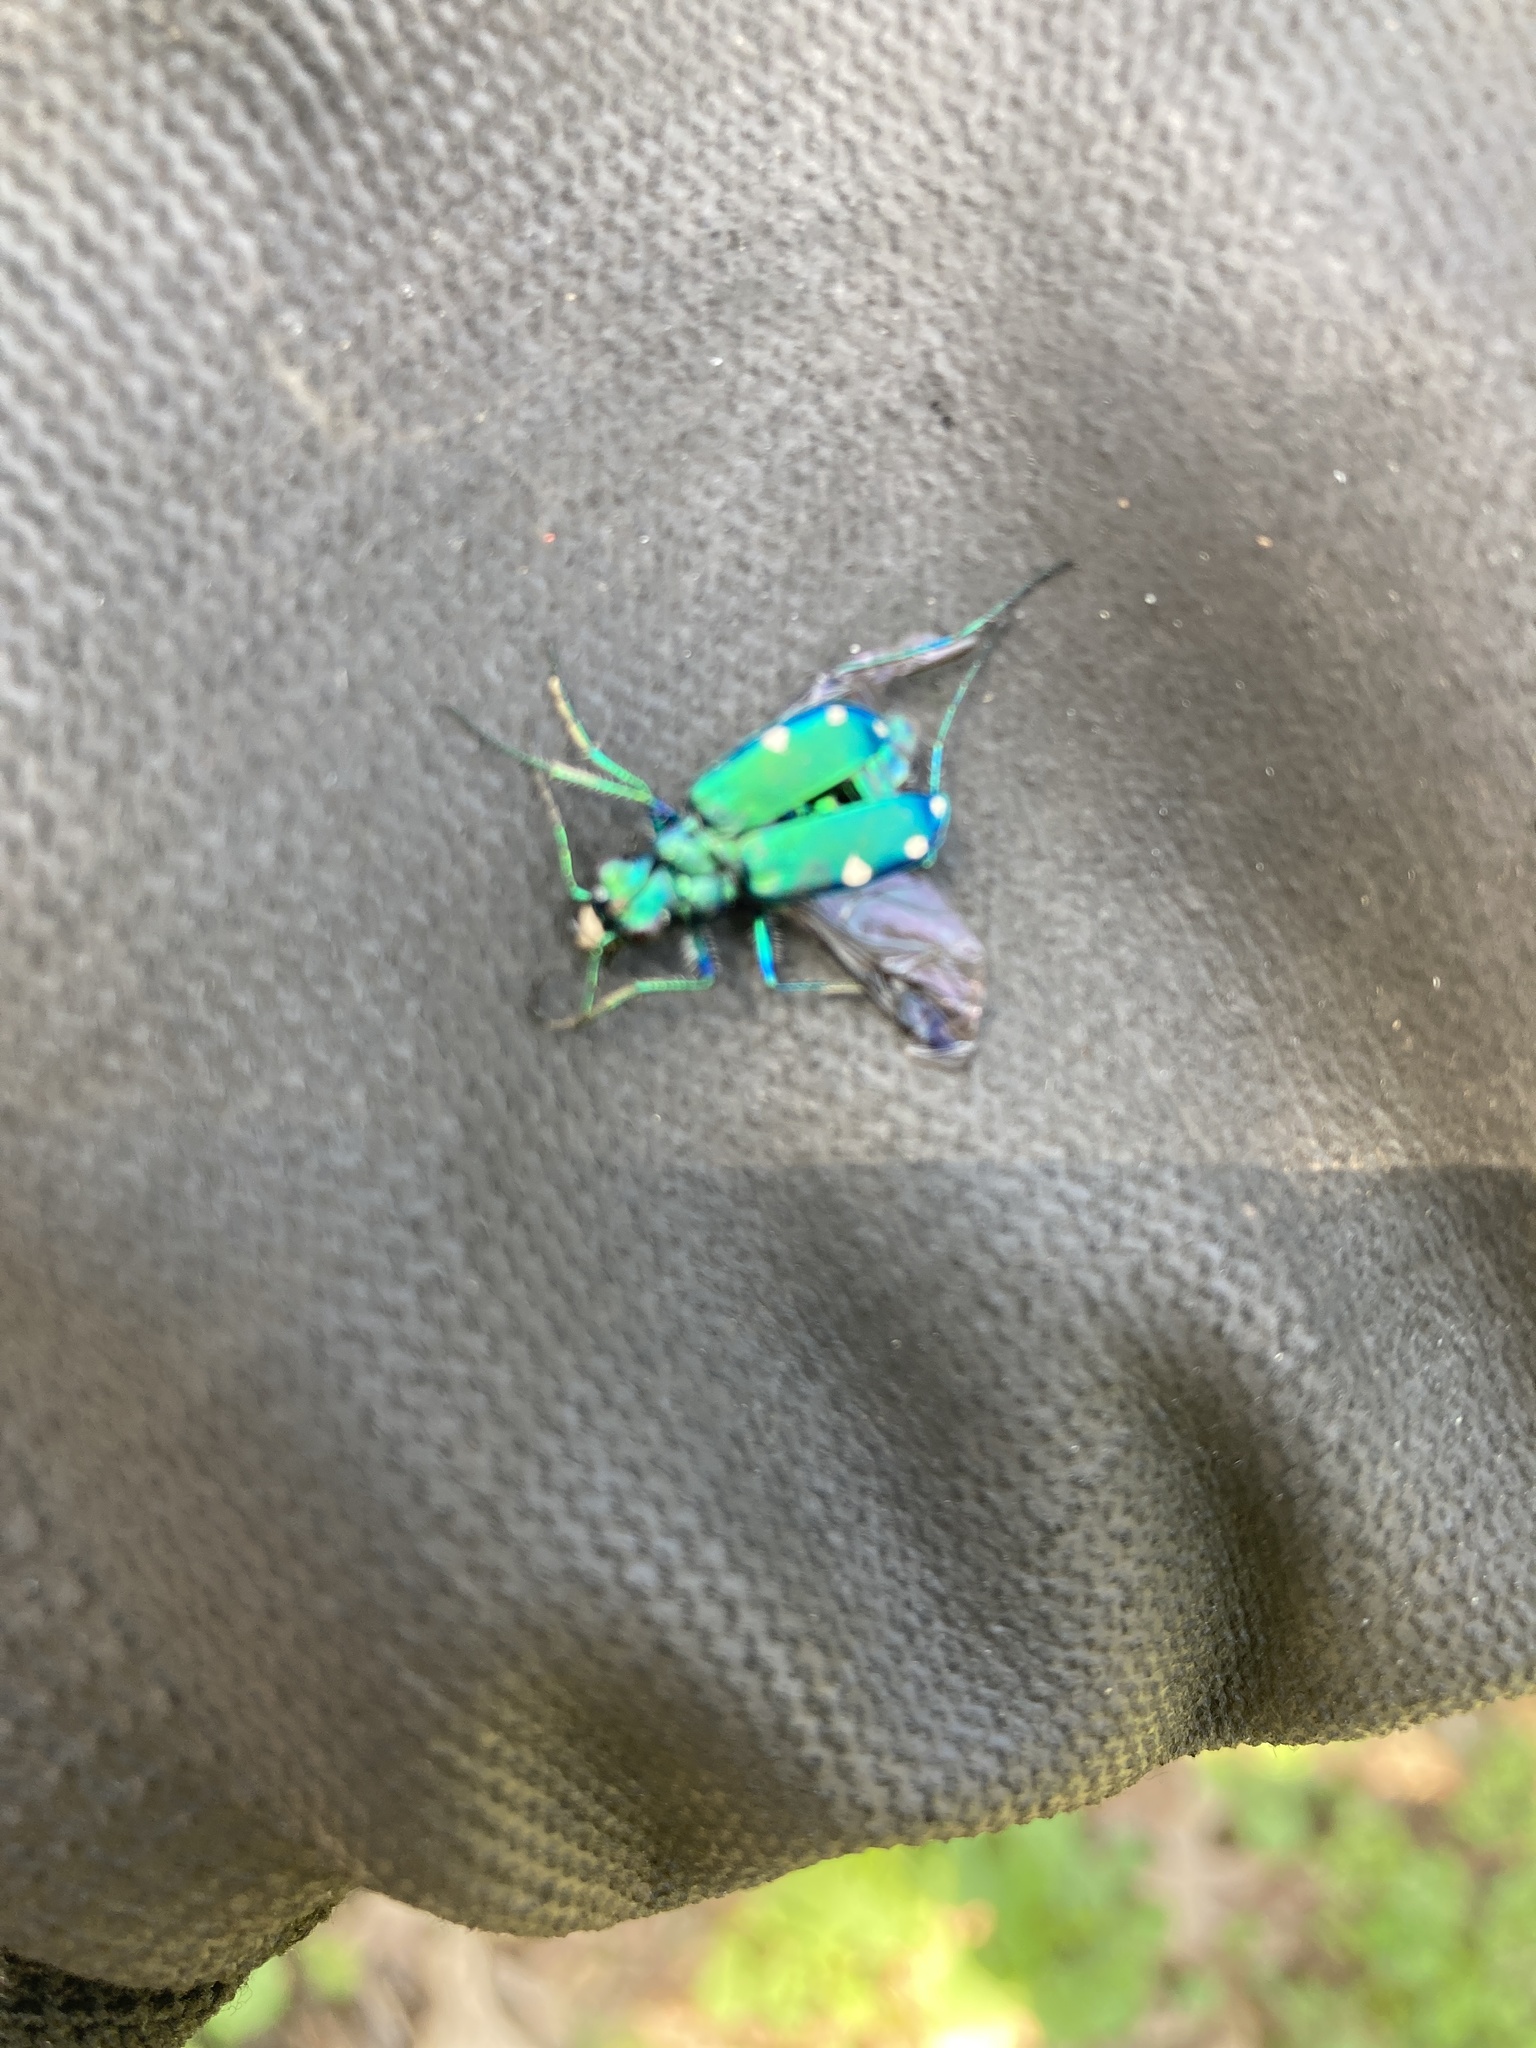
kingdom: Animalia
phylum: Arthropoda
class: Insecta
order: Coleoptera
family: Carabidae
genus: Cicindela
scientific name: Cicindela sexguttata
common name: Six-spotted tiger beetle
